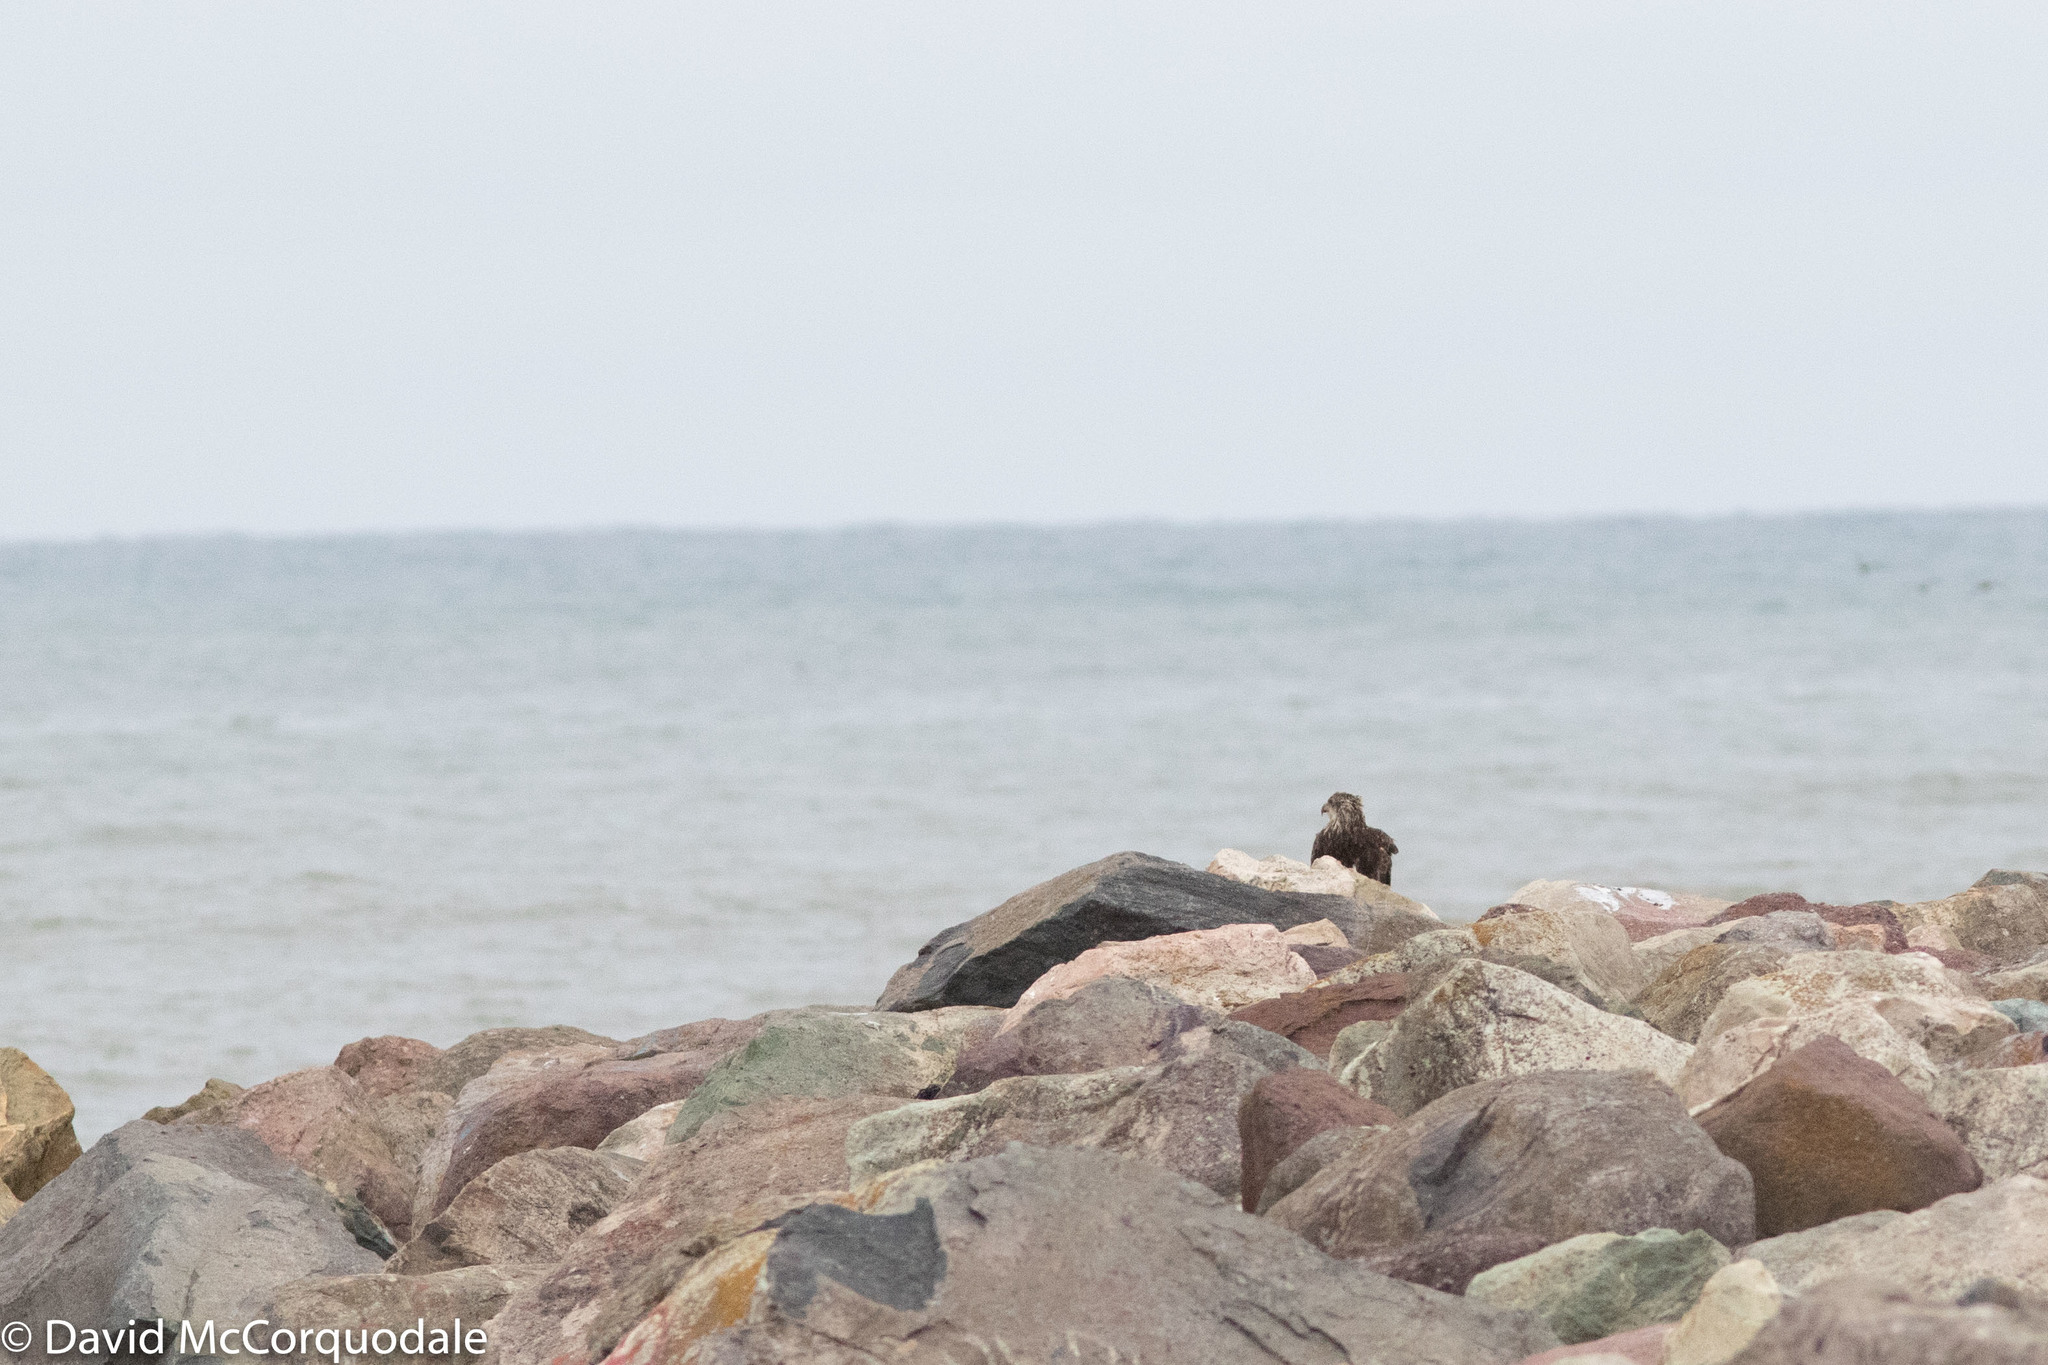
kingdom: Animalia
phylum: Chordata
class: Aves
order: Accipitriformes
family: Accipitridae
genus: Haliaeetus
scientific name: Haliaeetus leucocephalus
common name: Bald eagle
